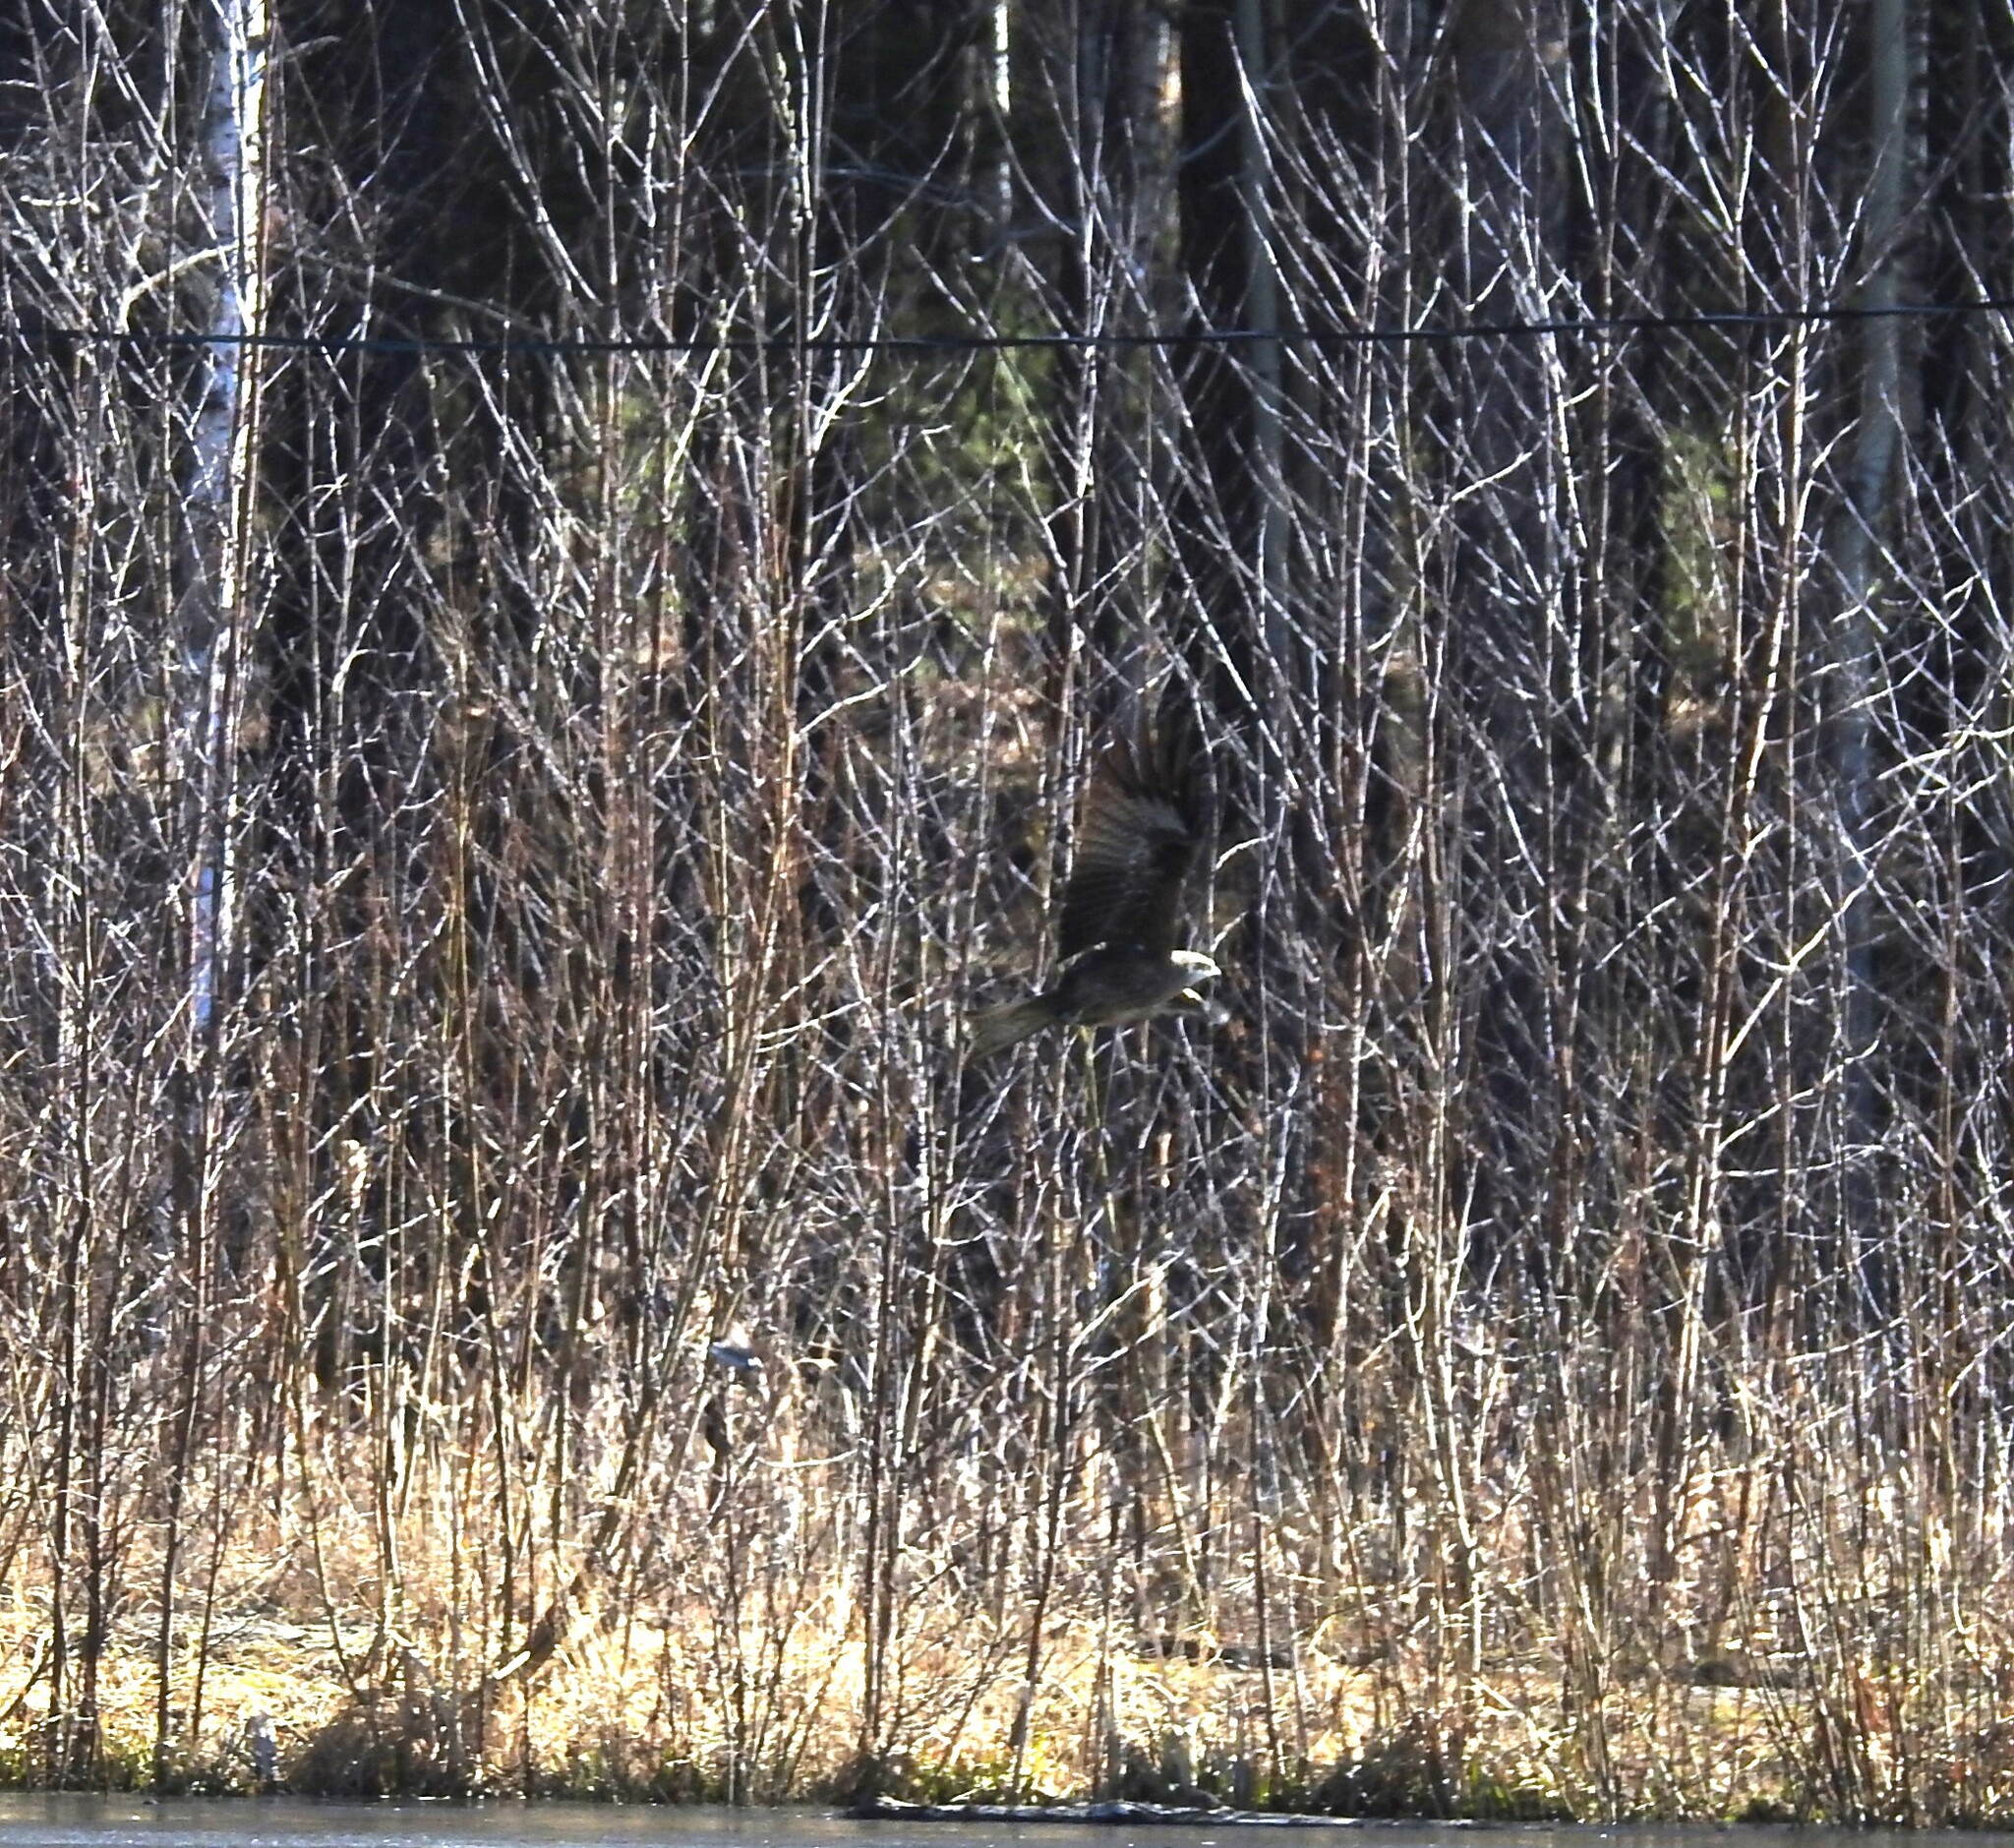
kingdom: Animalia
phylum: Chordata
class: Aves
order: Accipitriformes
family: Accipitridae
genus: Milvus
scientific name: Milvus migrans
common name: Black kite
